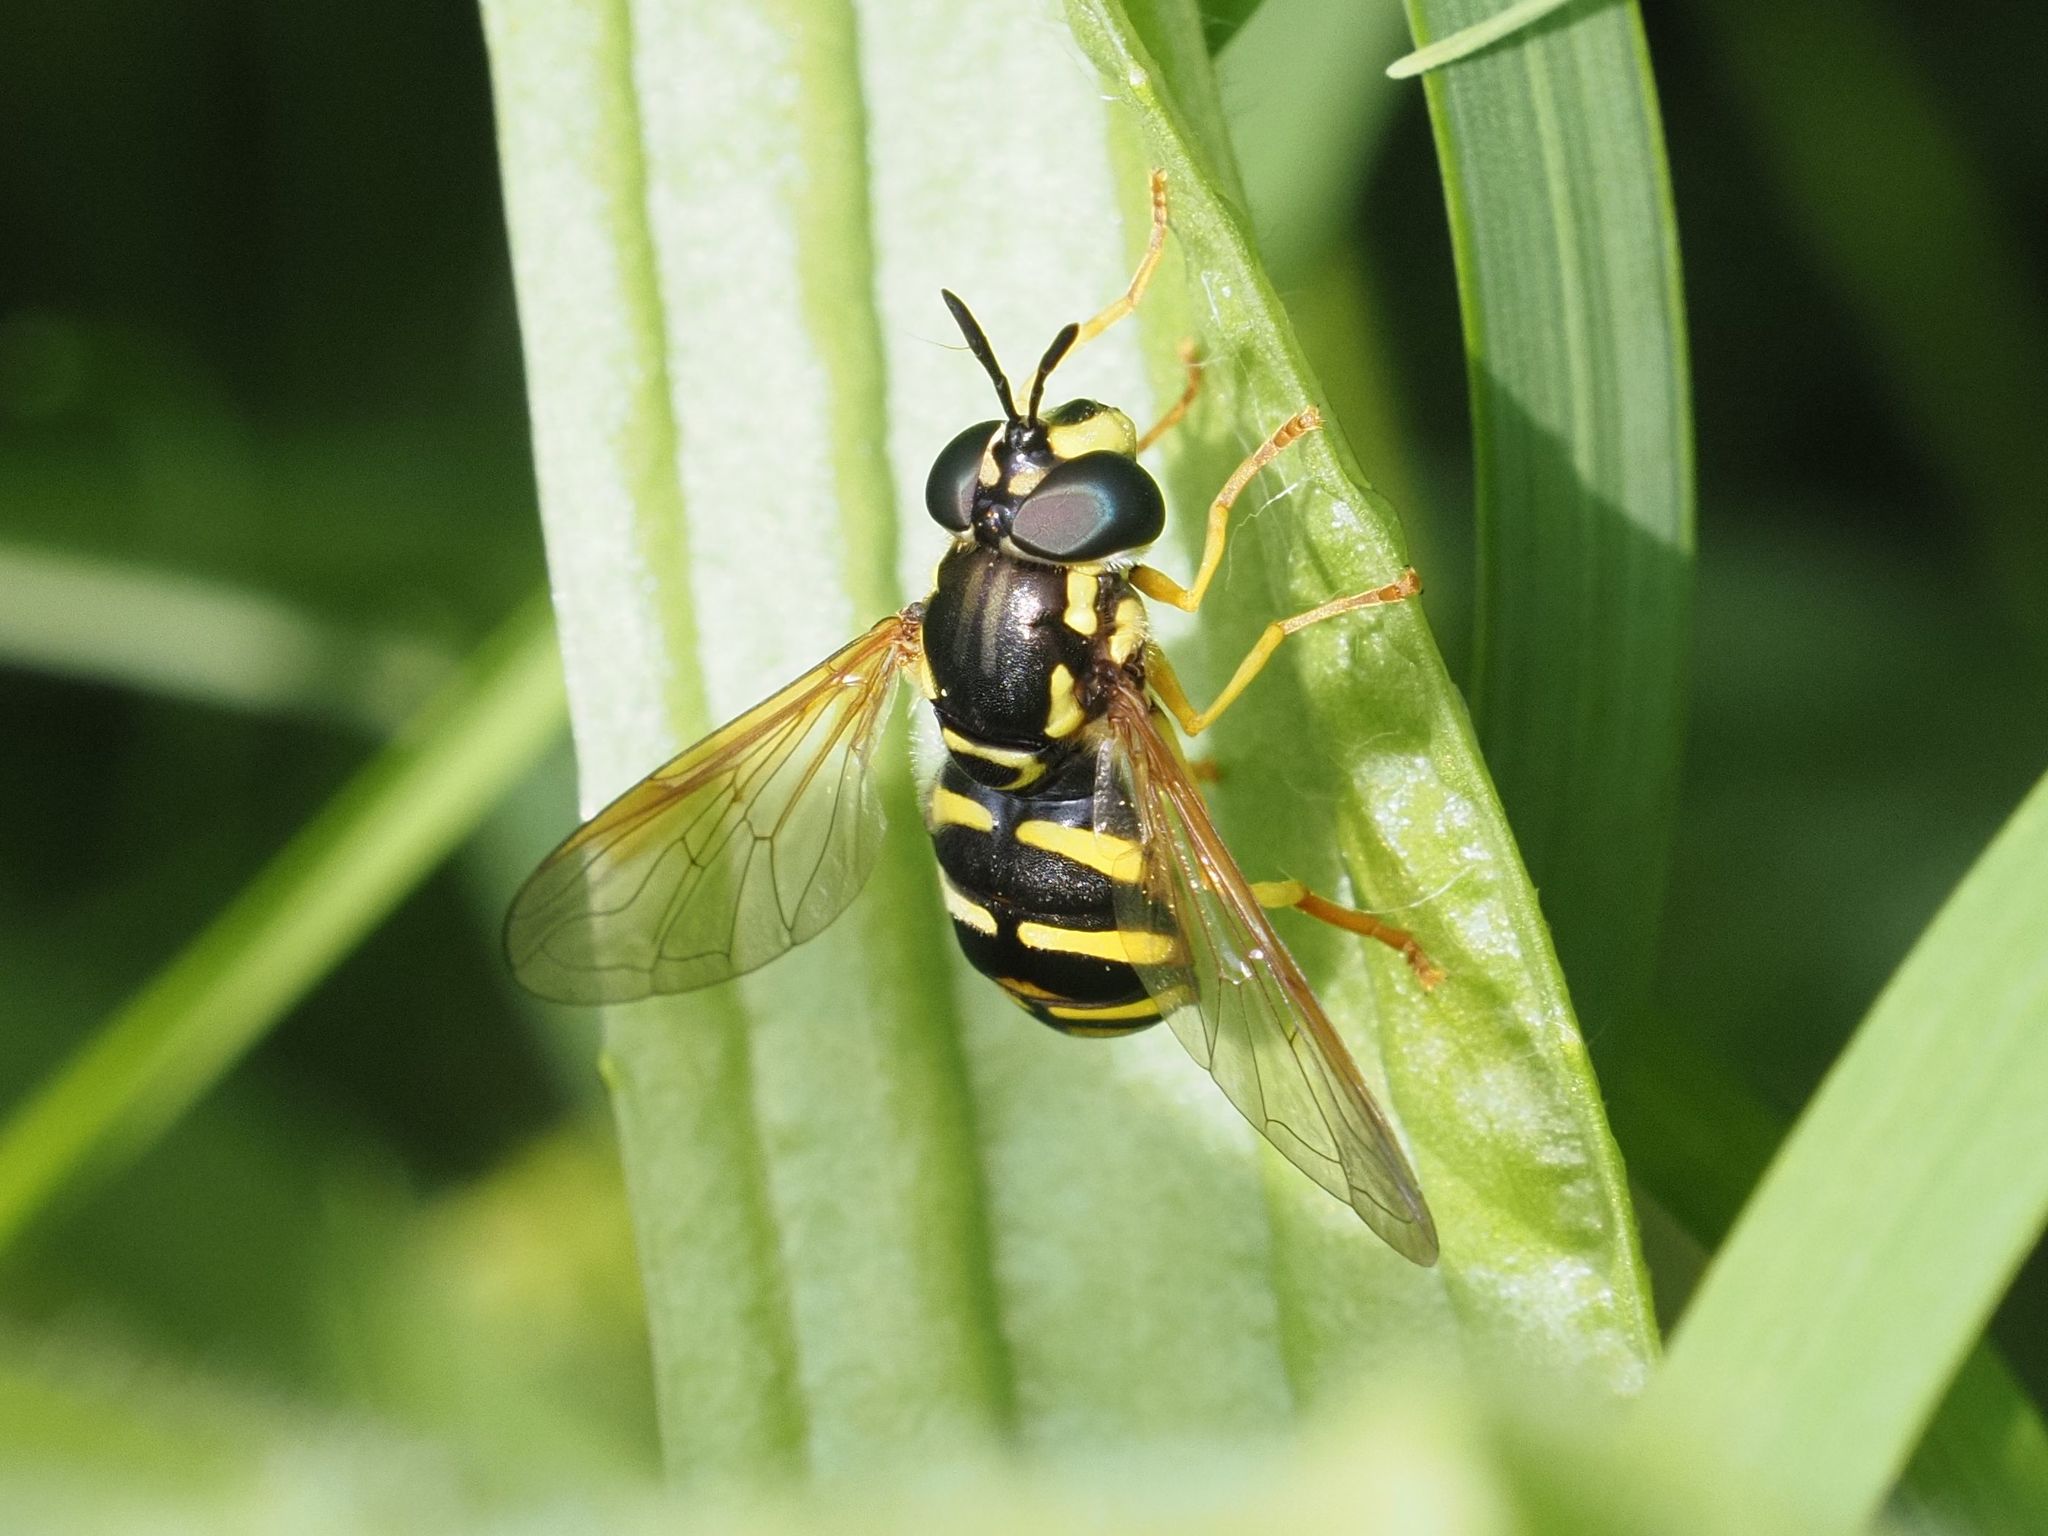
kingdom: Animalia
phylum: Arthropoda
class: Insecta
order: Diptera
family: Syrphidae
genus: Chrysotoxum
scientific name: Chrysotoxum elegans
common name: Zipperback
